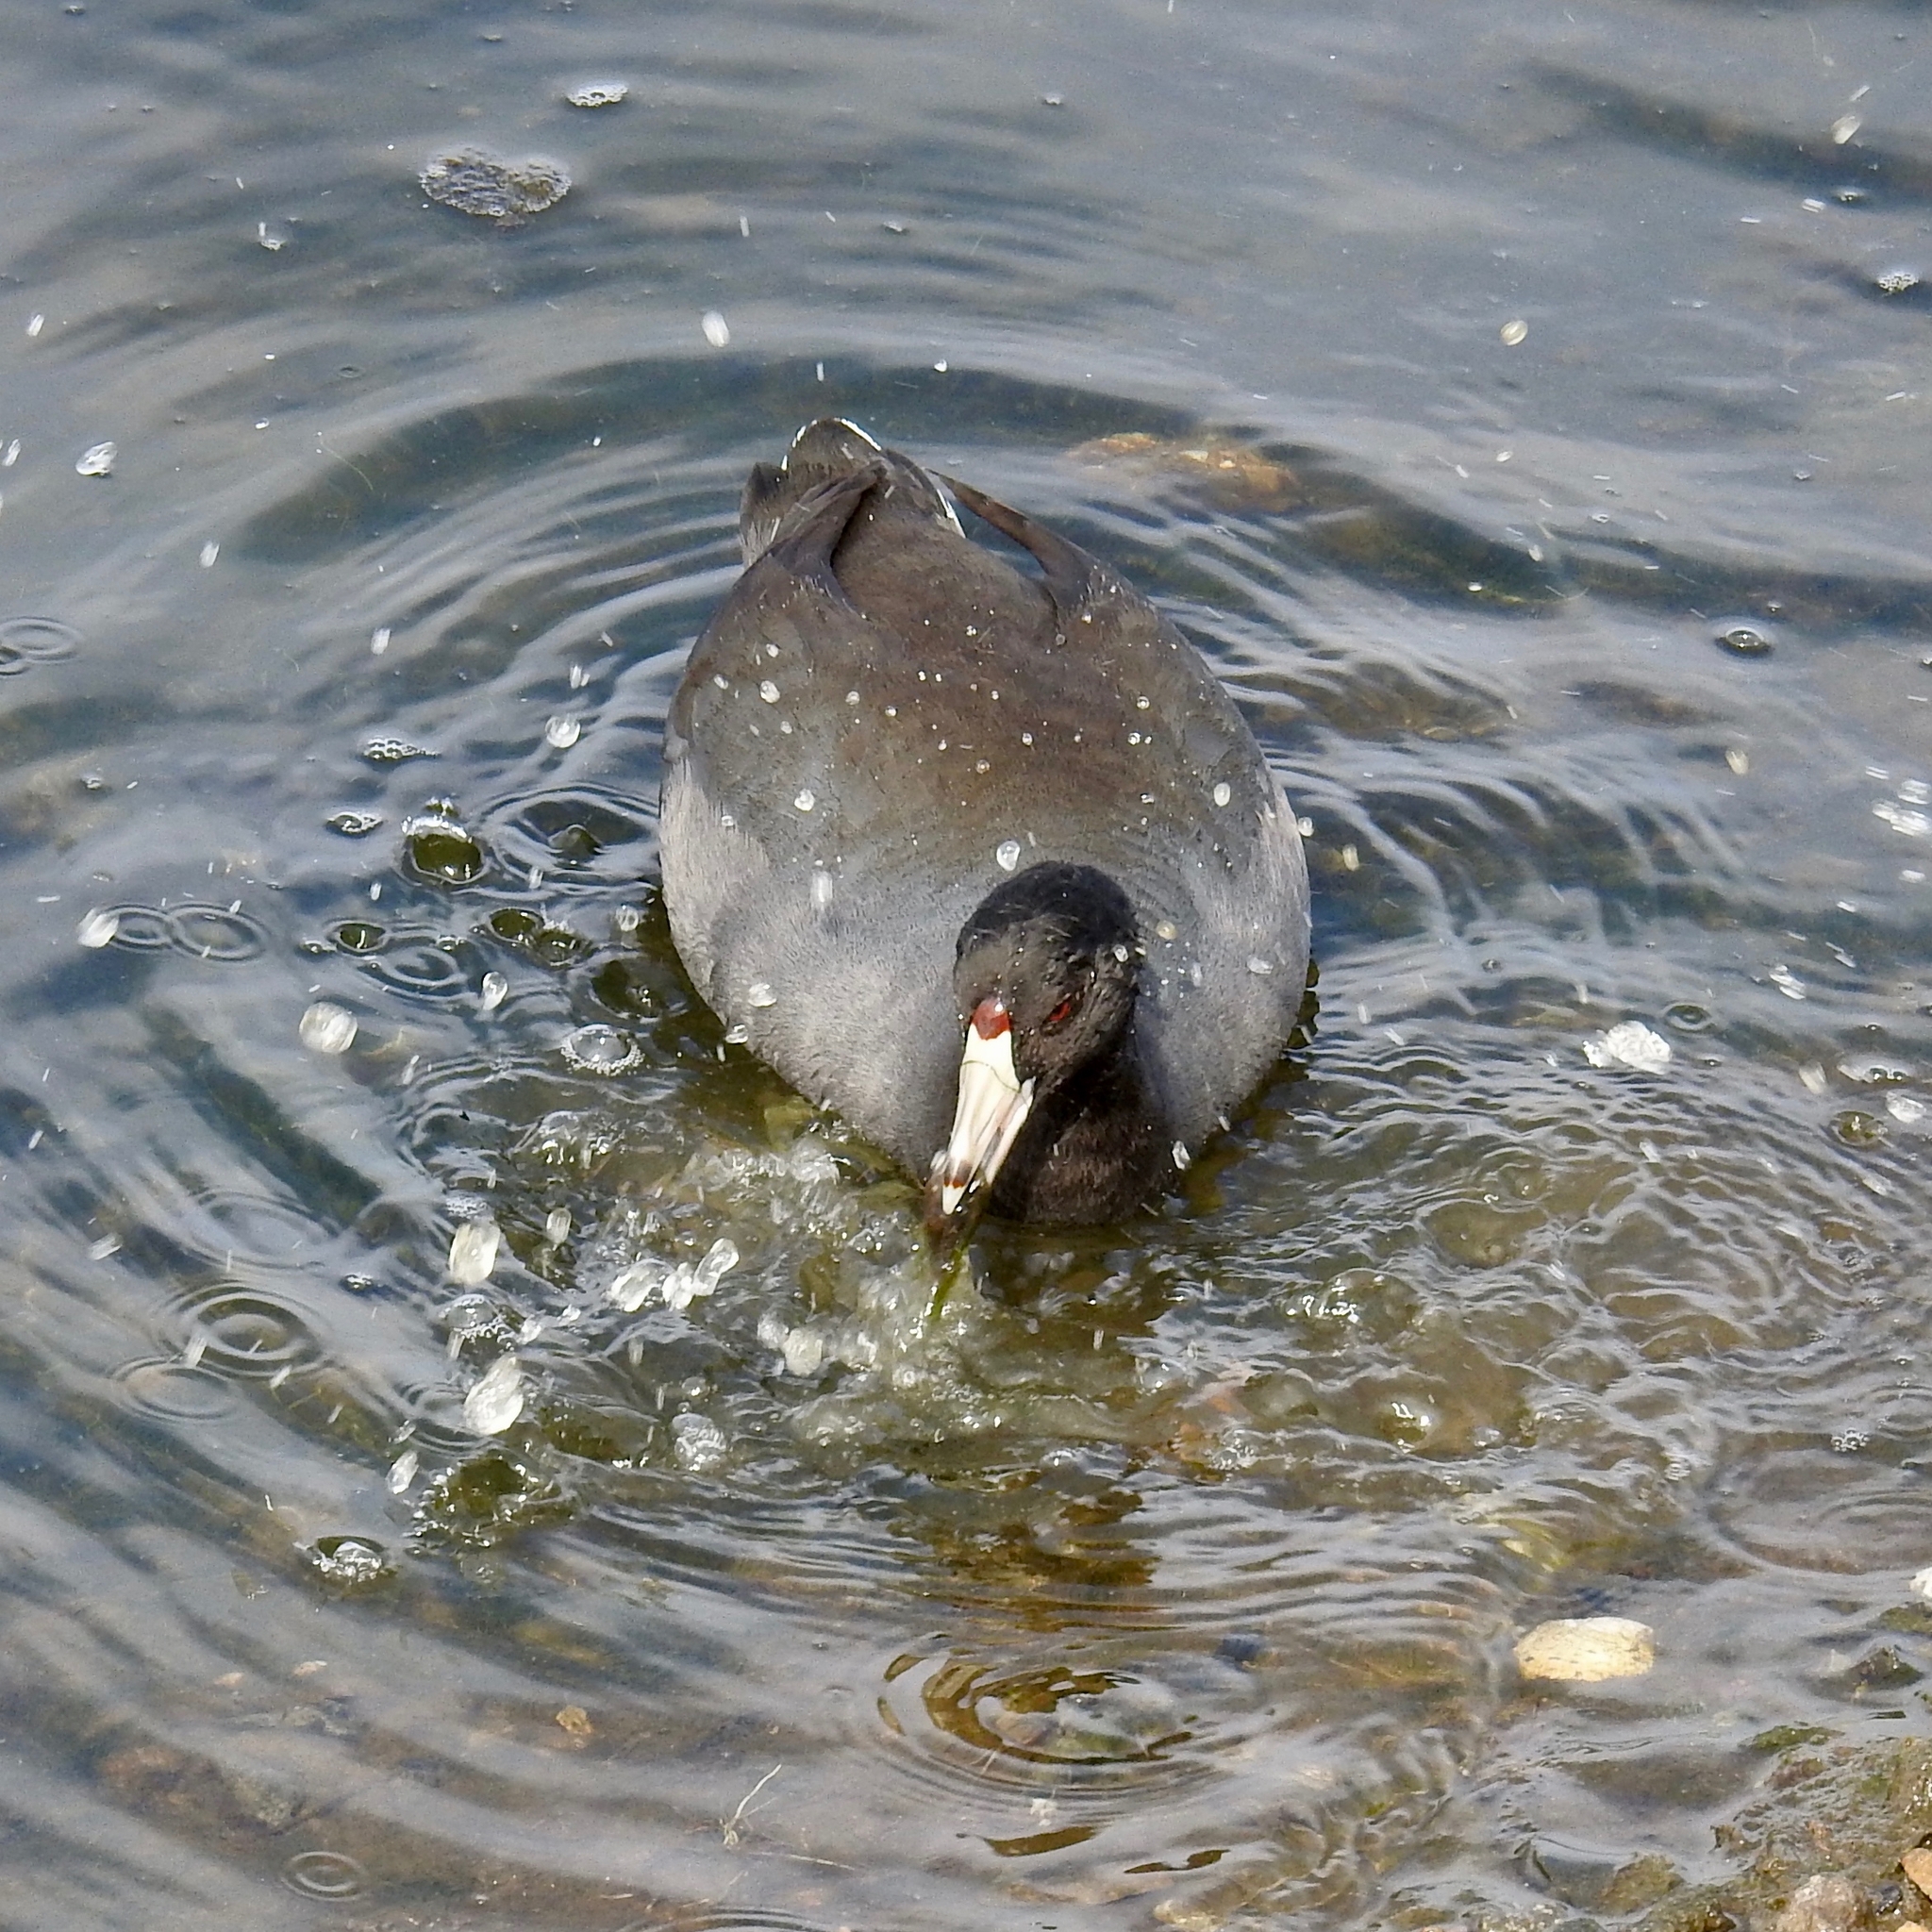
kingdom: Animalia
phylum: Chordata
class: Aves
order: Gruiformes
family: Rallidae
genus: Fulica
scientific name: Fulica americana
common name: American coot
